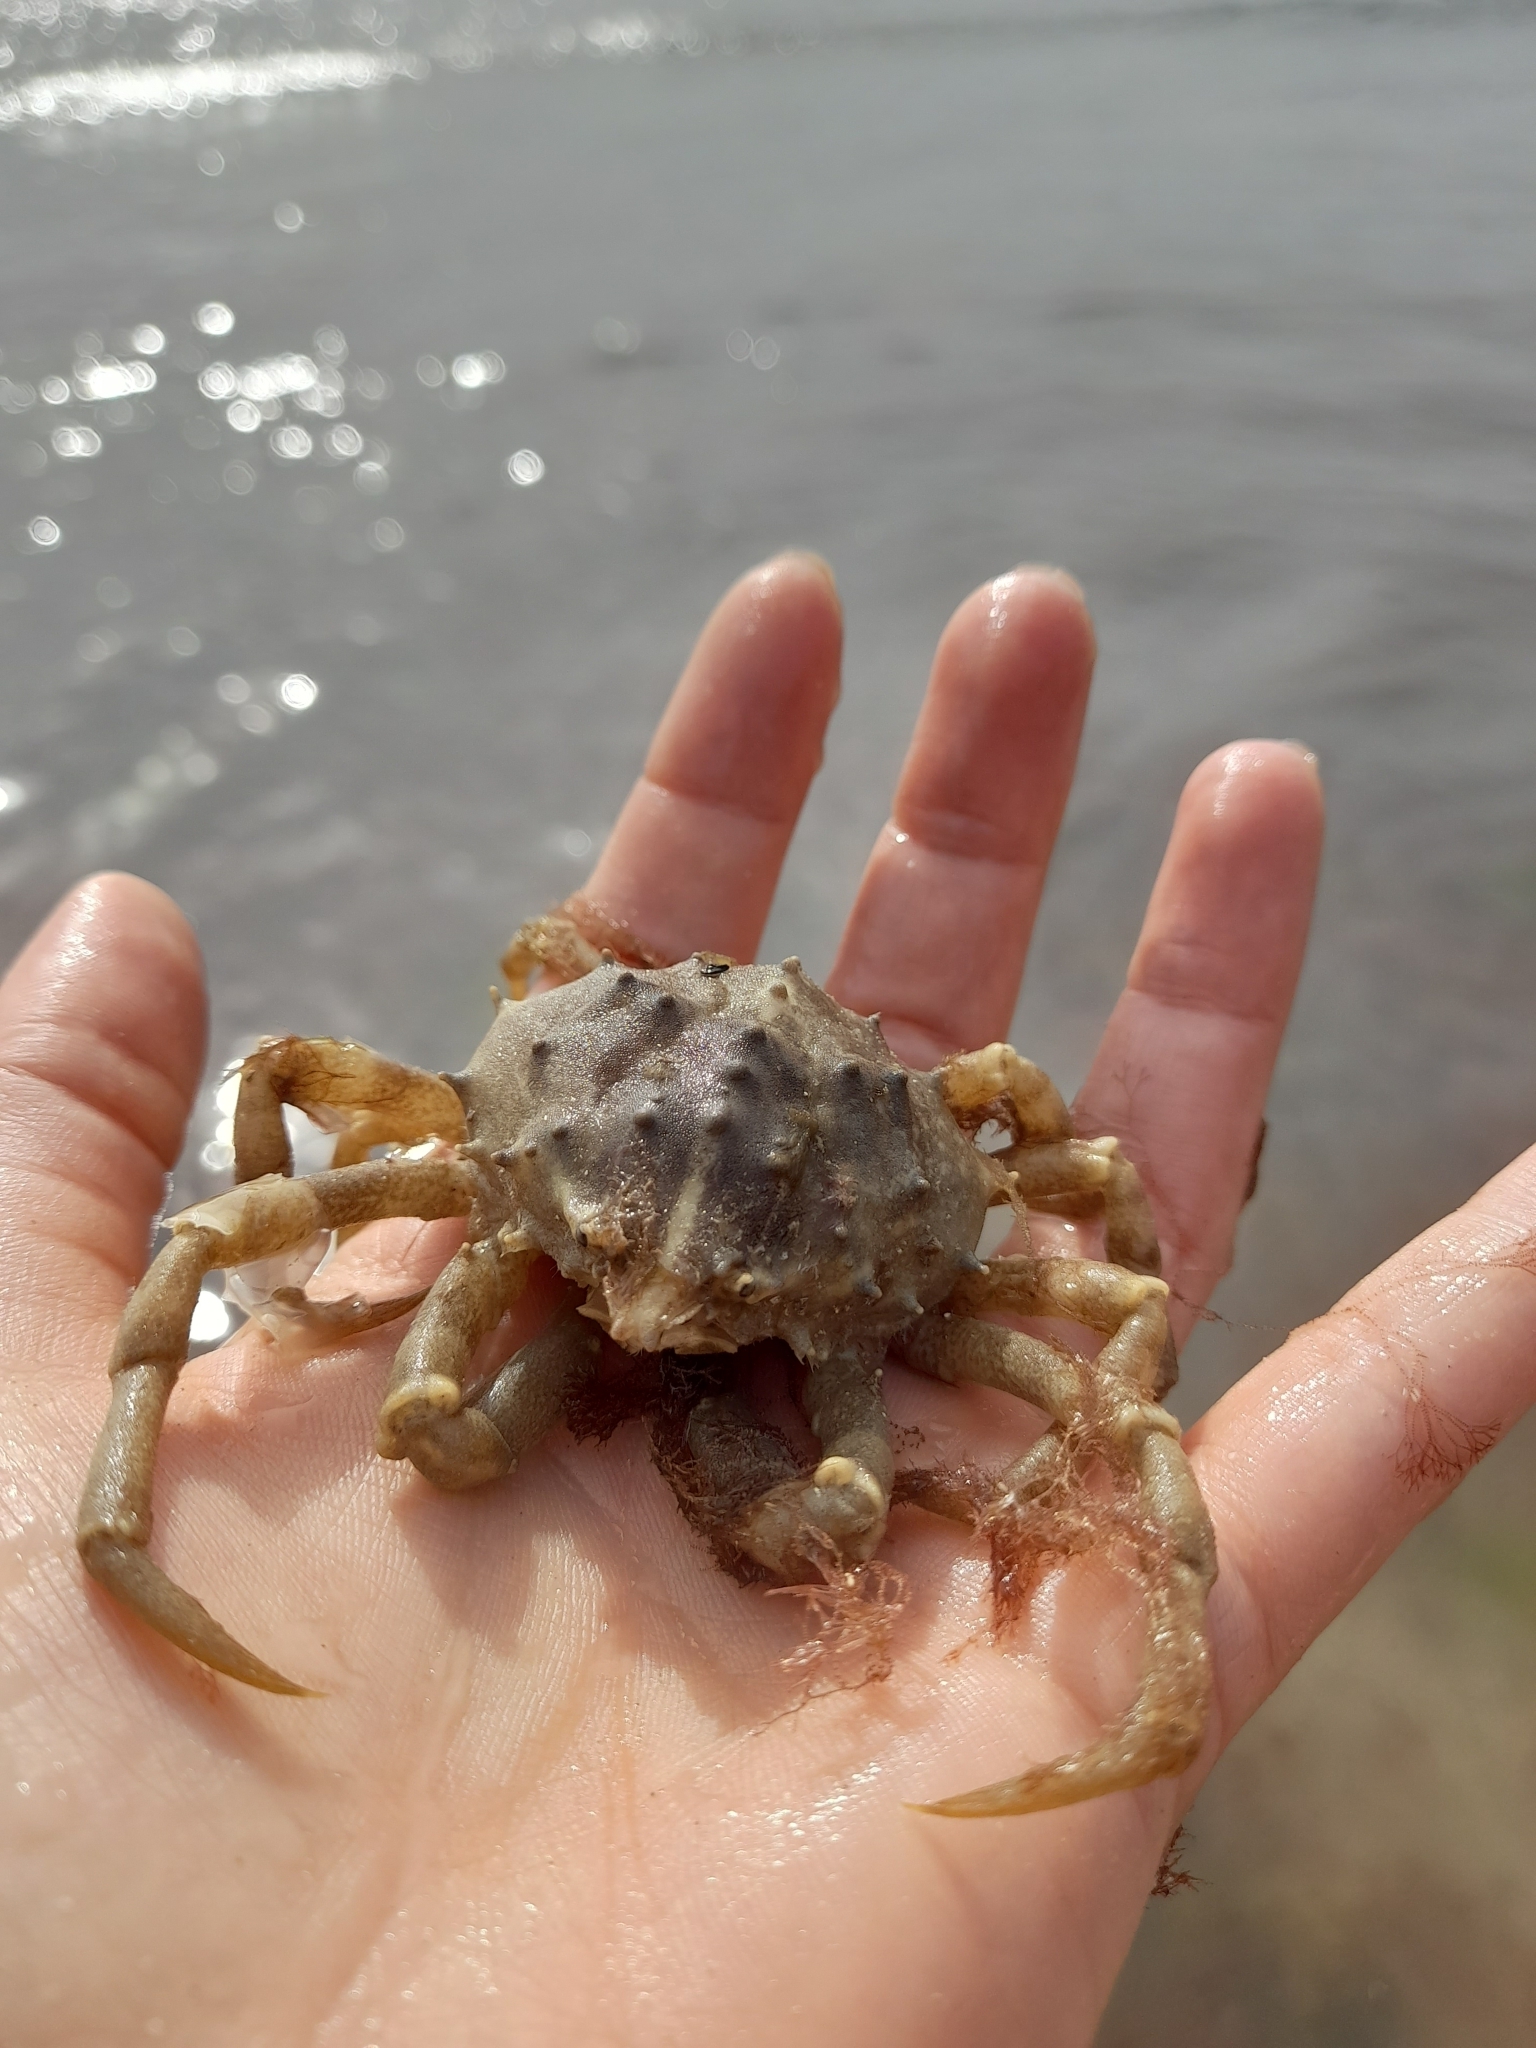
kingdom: Animalia
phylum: Arthropoda
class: Malacostraca
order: Decapoda
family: Epialtidae
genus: Libinia
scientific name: Libinia spinosa
